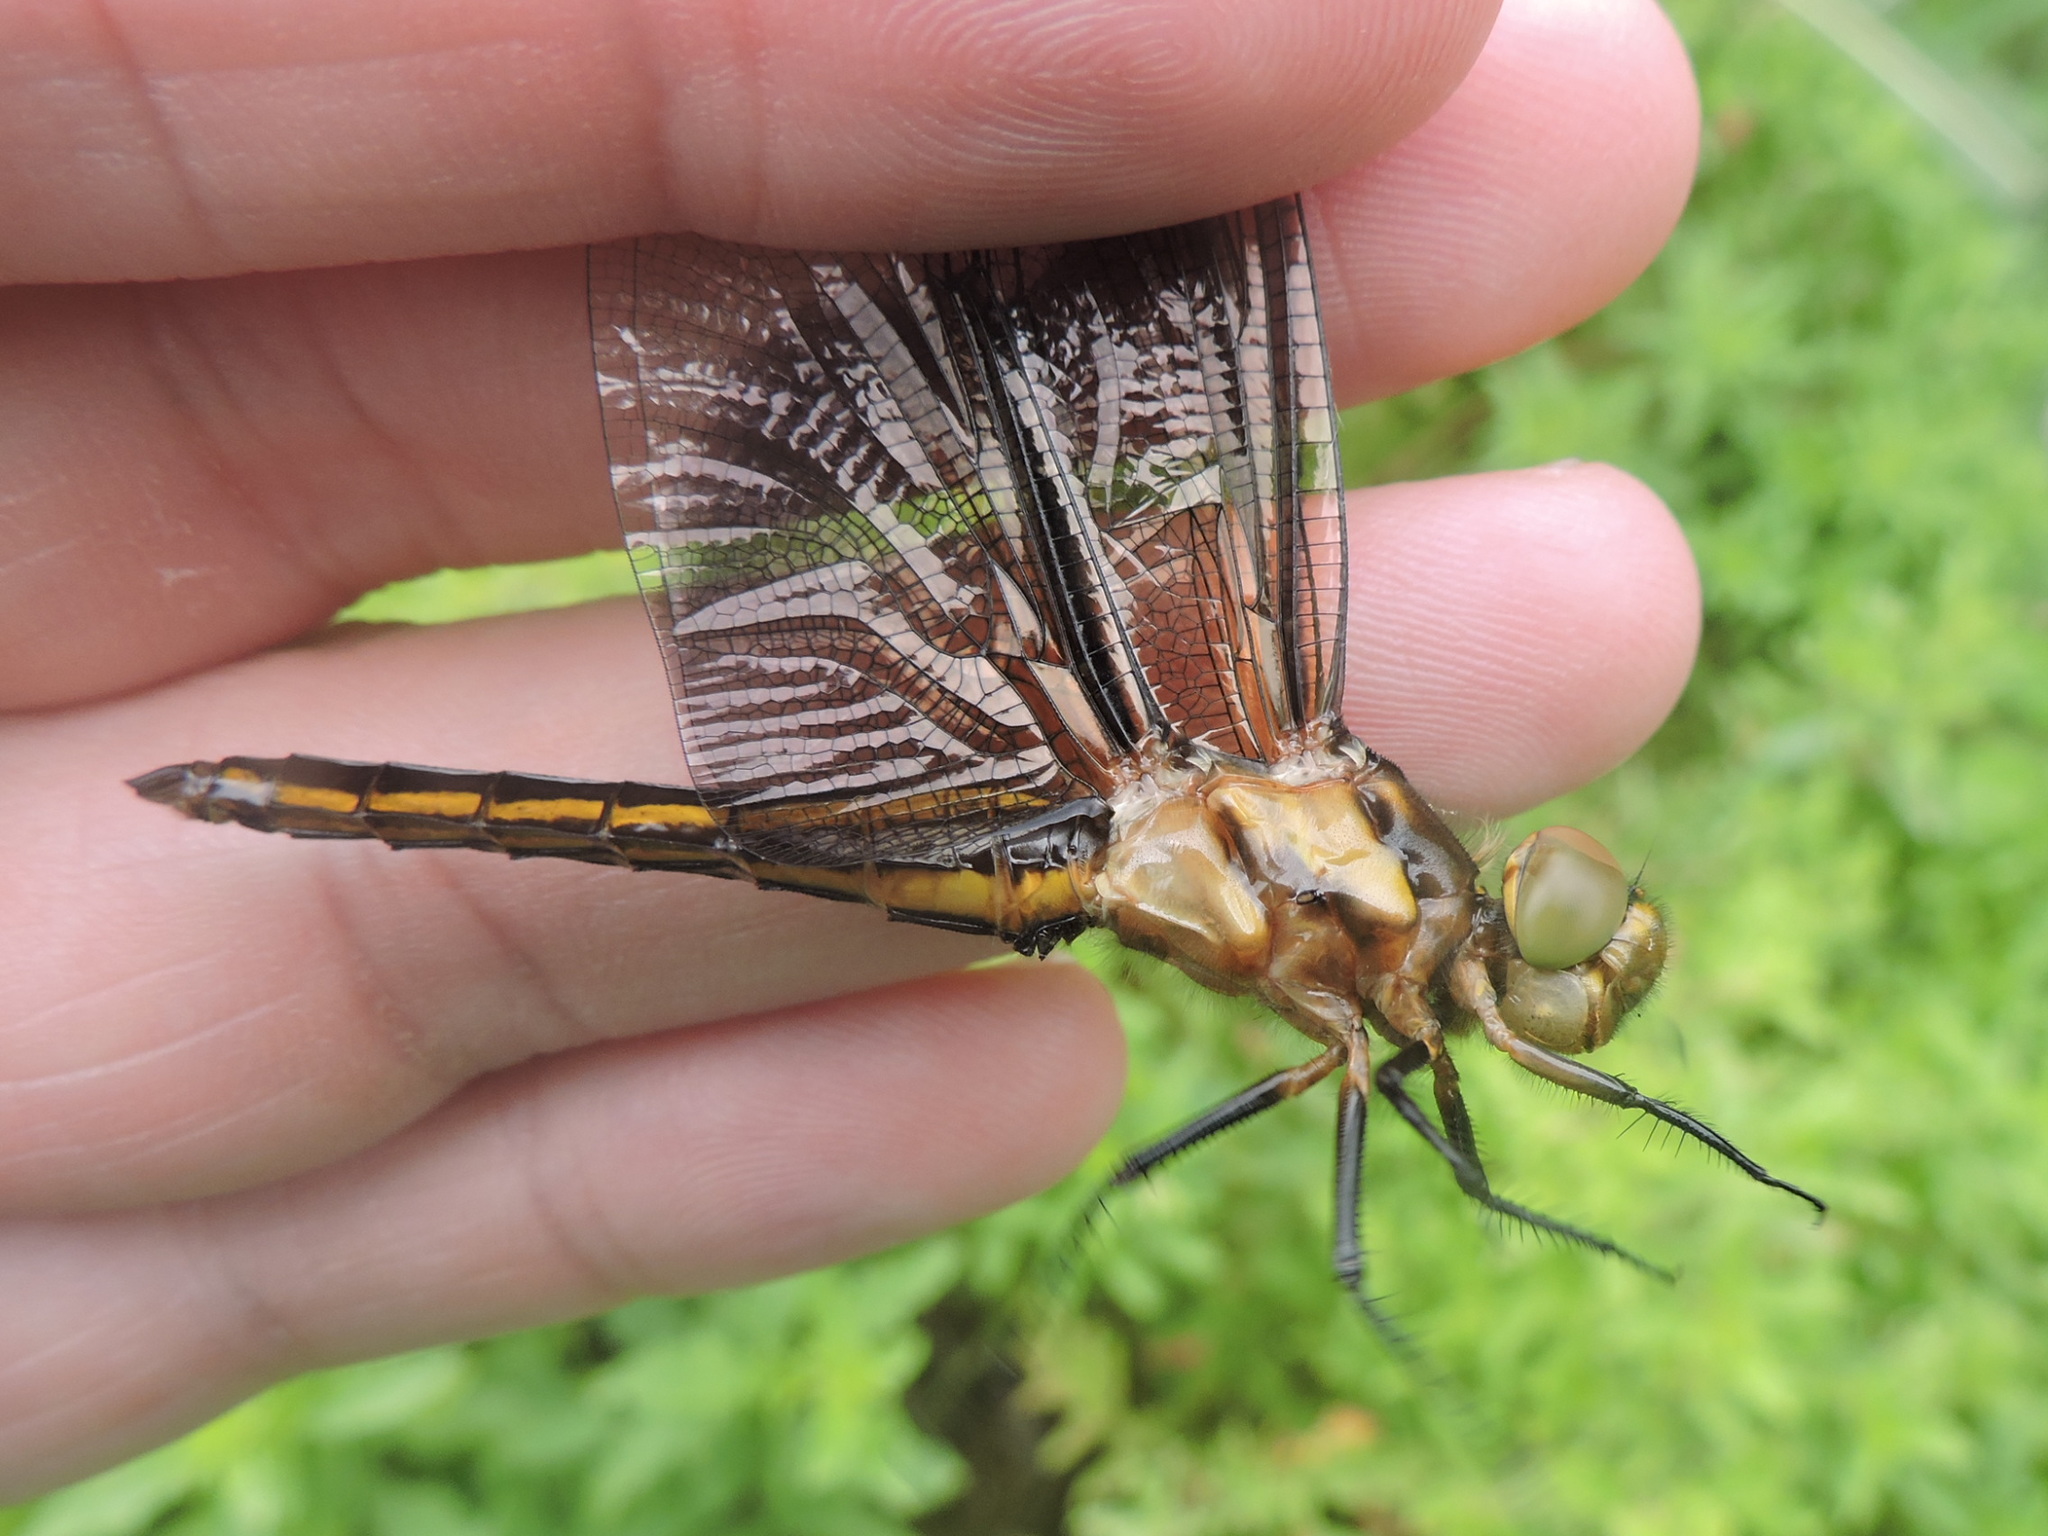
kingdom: Animalia
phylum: Arthropoda
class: Insecta
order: Odonata
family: Libellulidae
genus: Libellula
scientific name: Libellula luctuosa
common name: Widow skimmer
